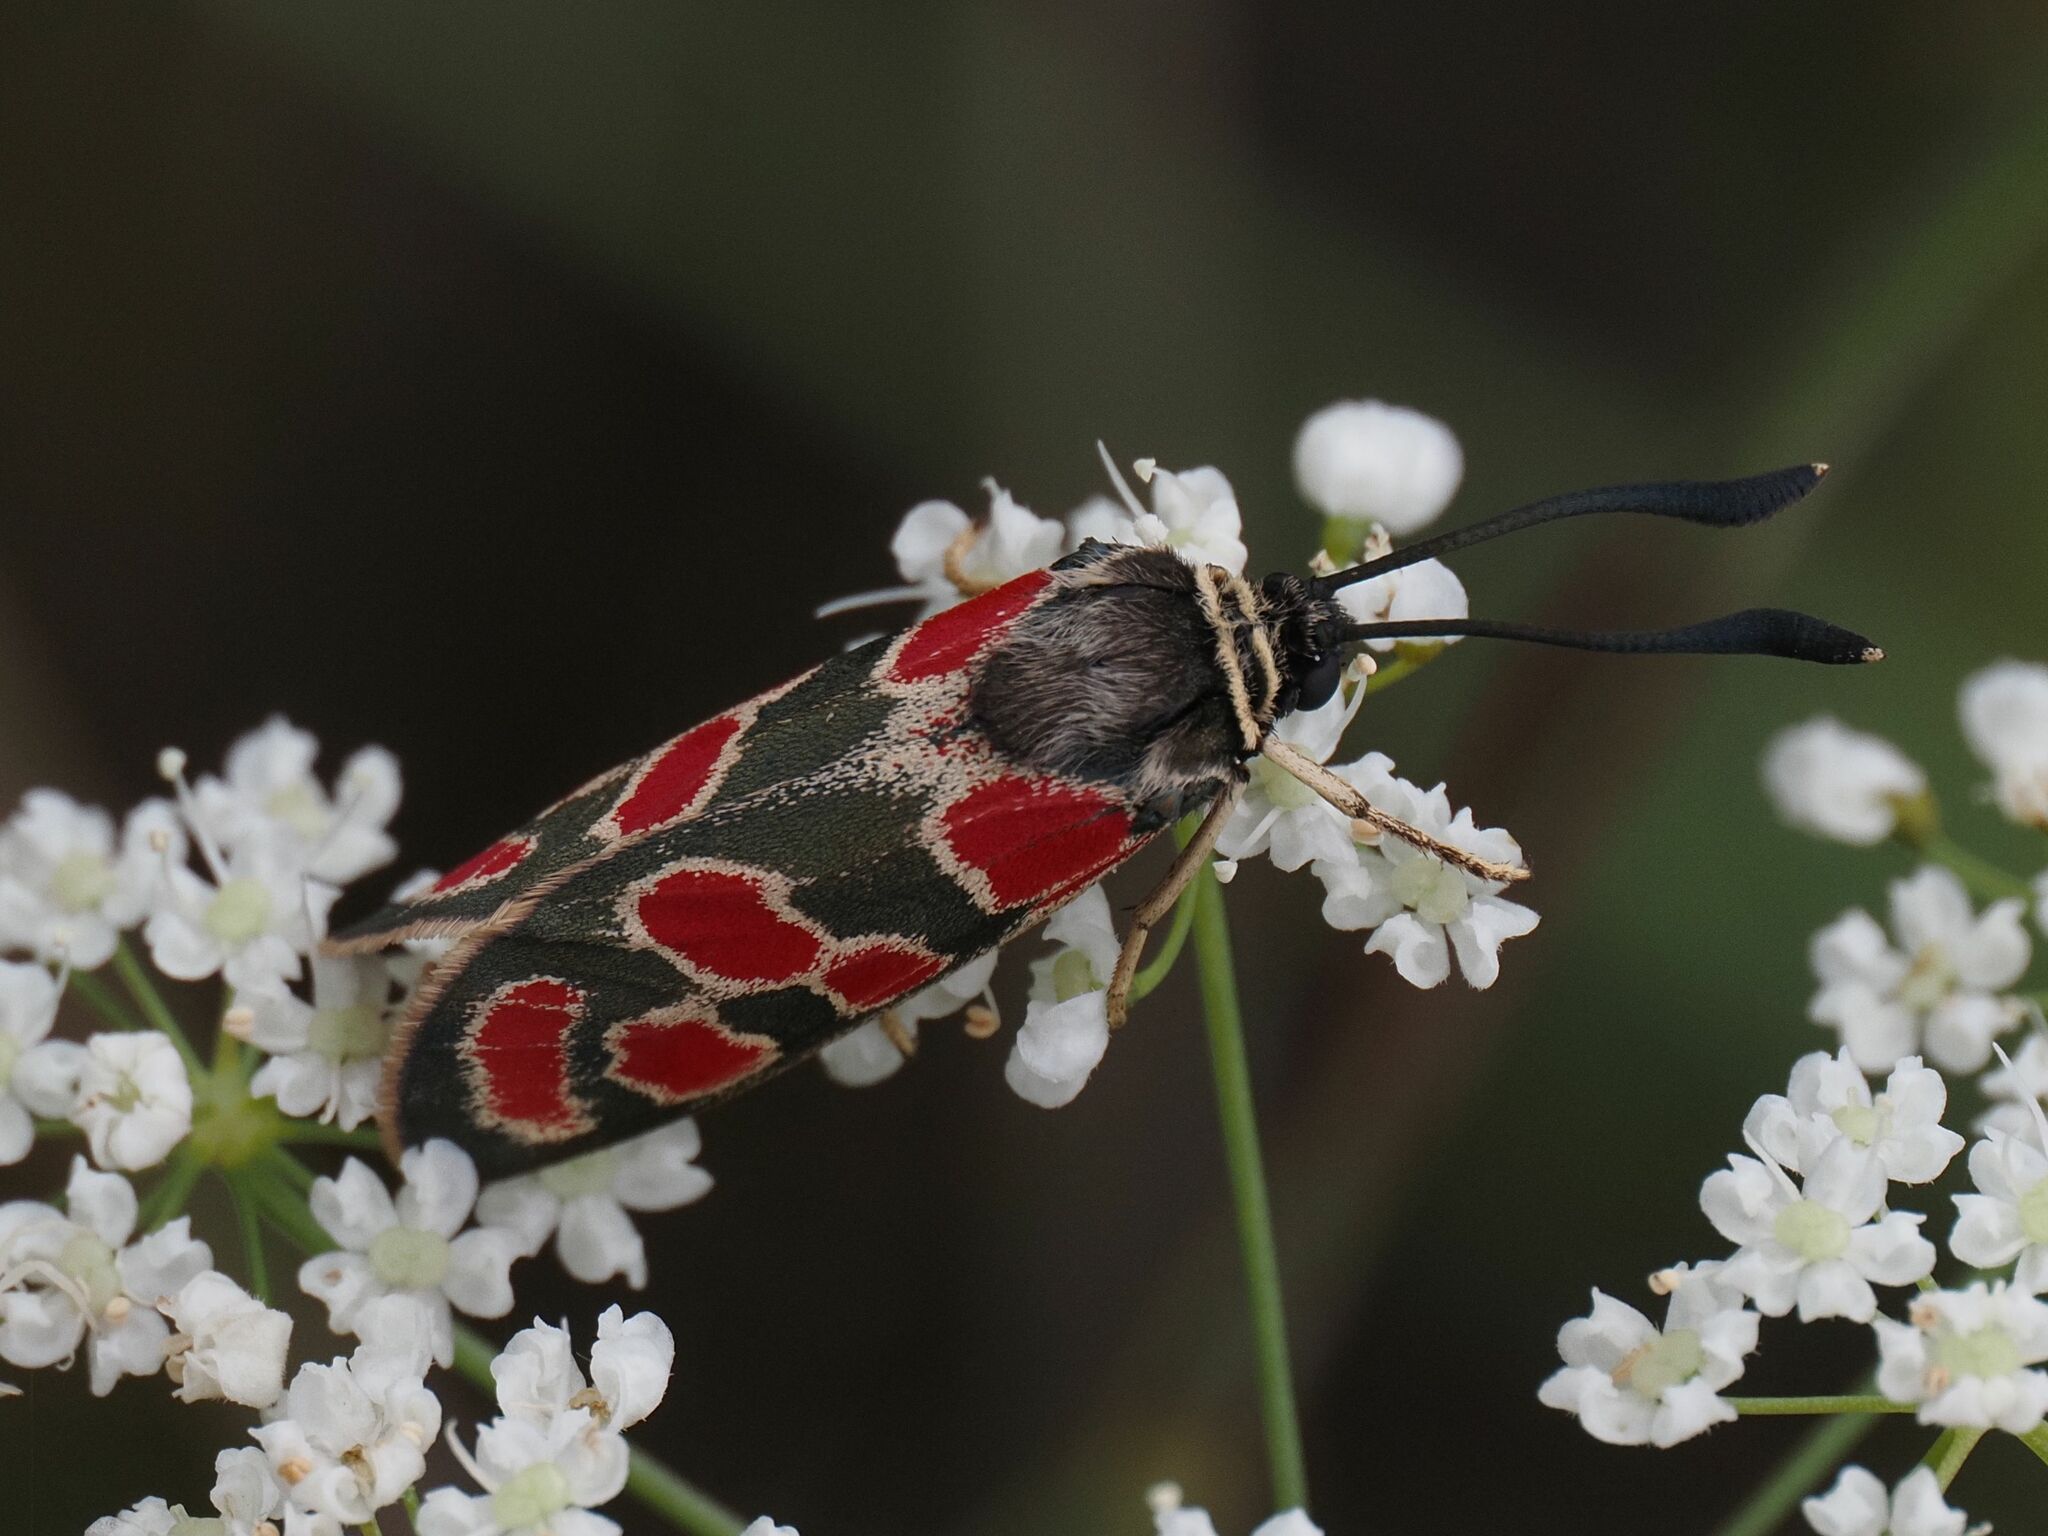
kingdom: Animalia
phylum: Arthropoda
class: Insecta
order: Lepidoptera
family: Zygaenidae
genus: Zygaena
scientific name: Zygaena carniolica
